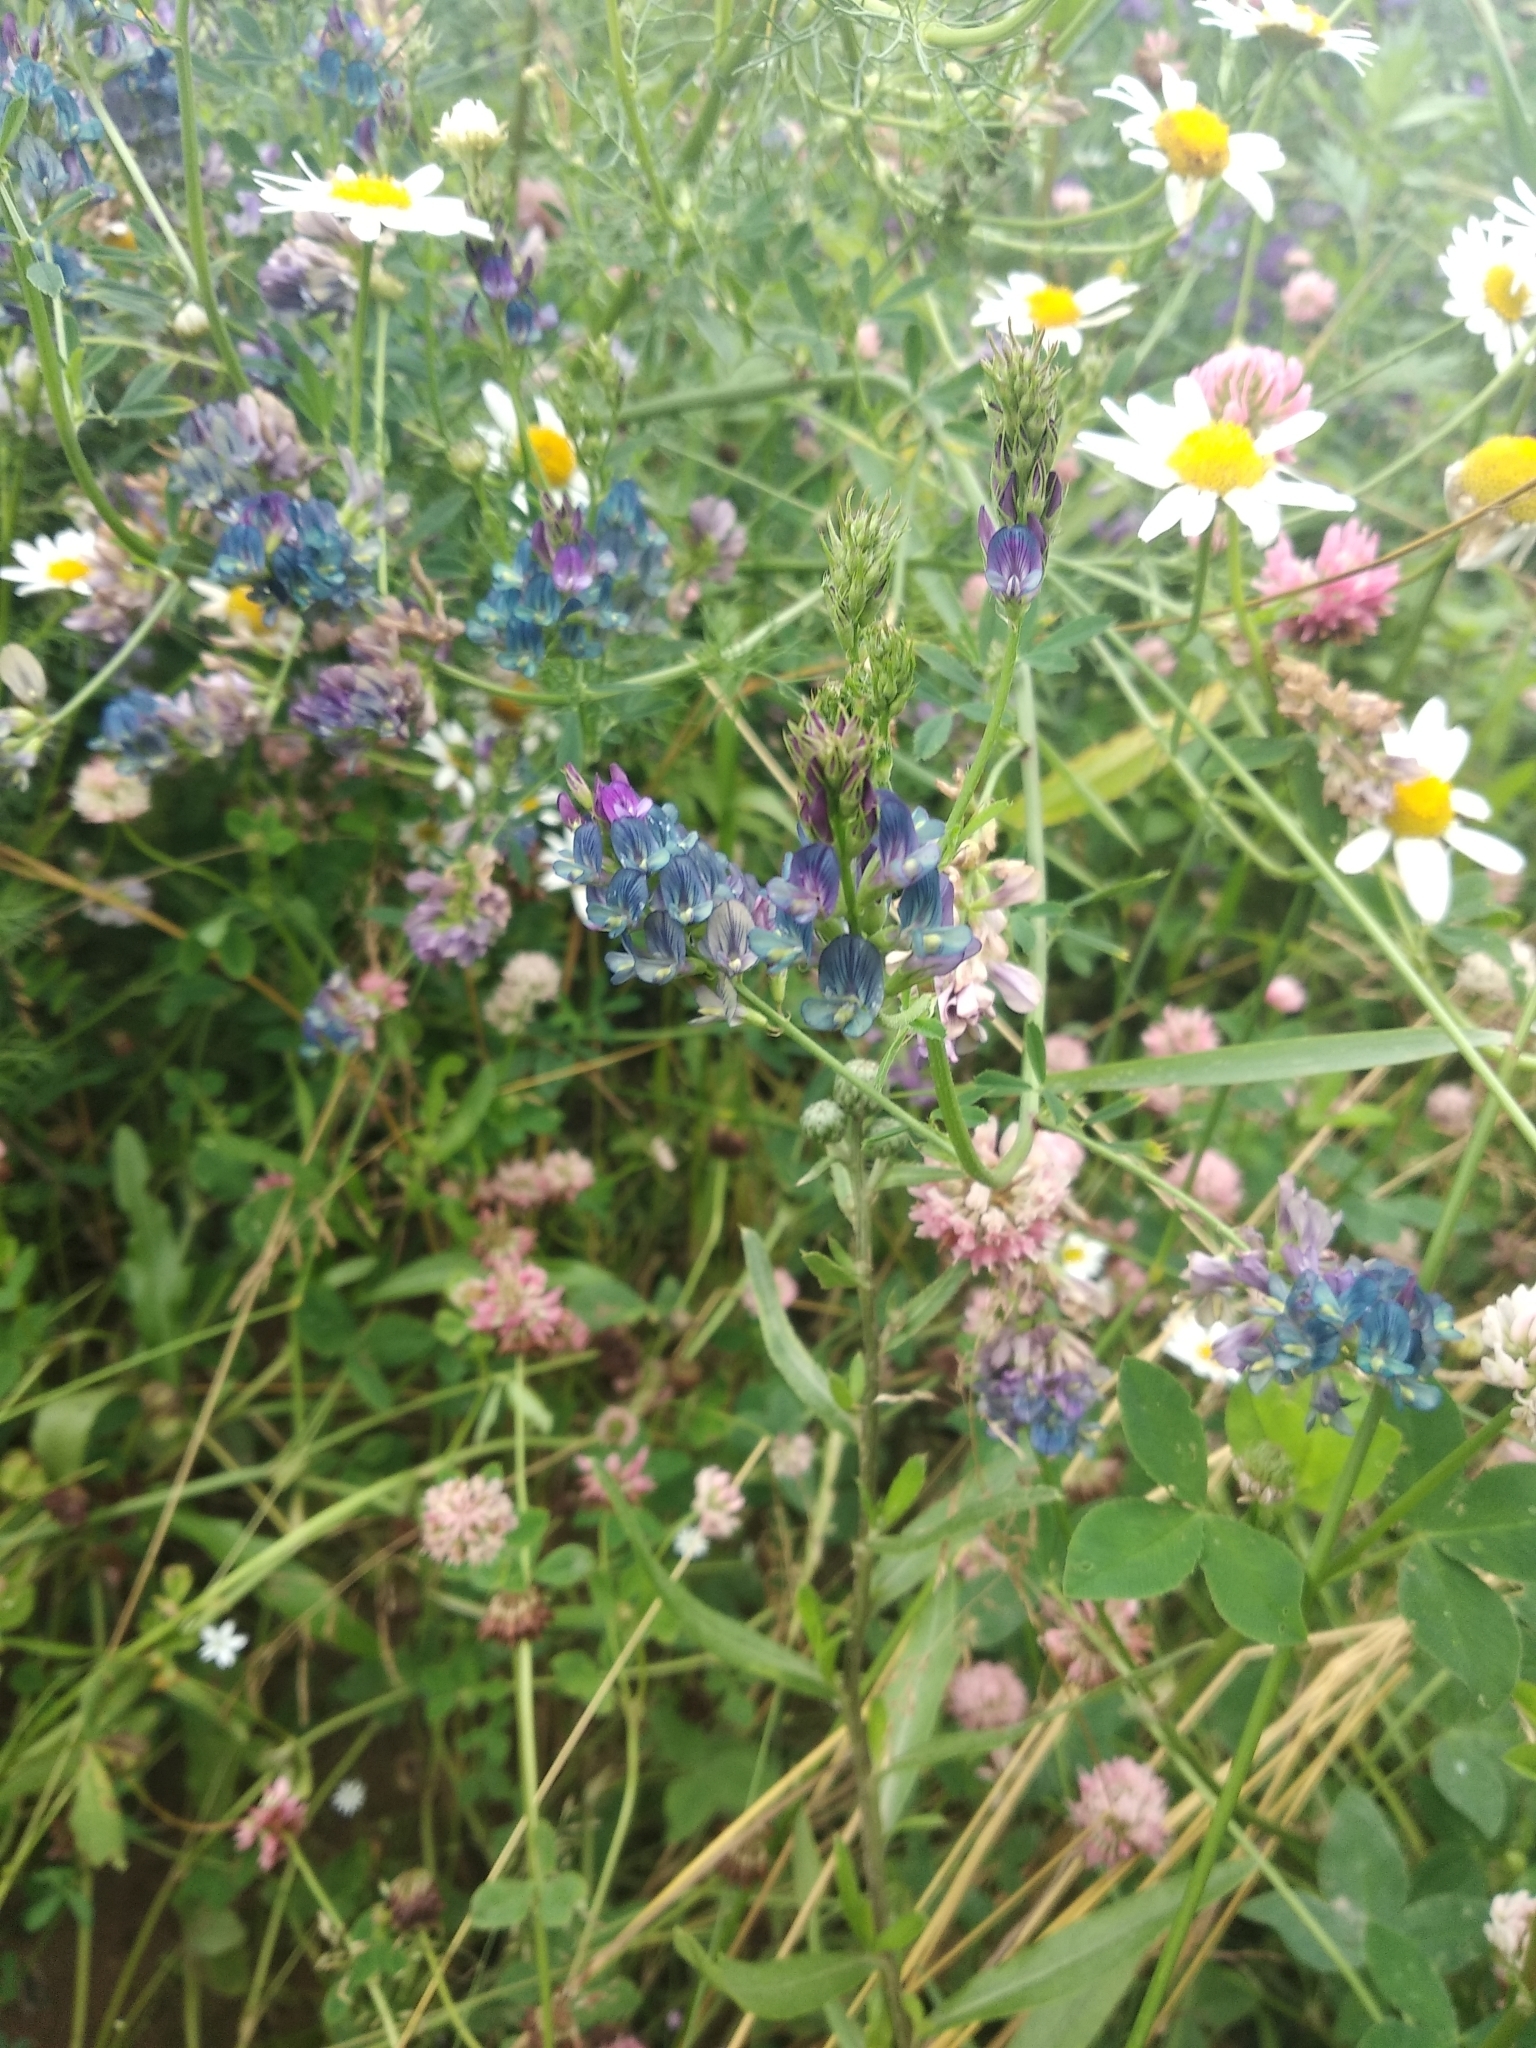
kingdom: Plantae
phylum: Tracheophyta
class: Magnoliopsida
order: Fabales
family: Fabaceae
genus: Medicago
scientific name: Medicago varia
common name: Sand lucerne
